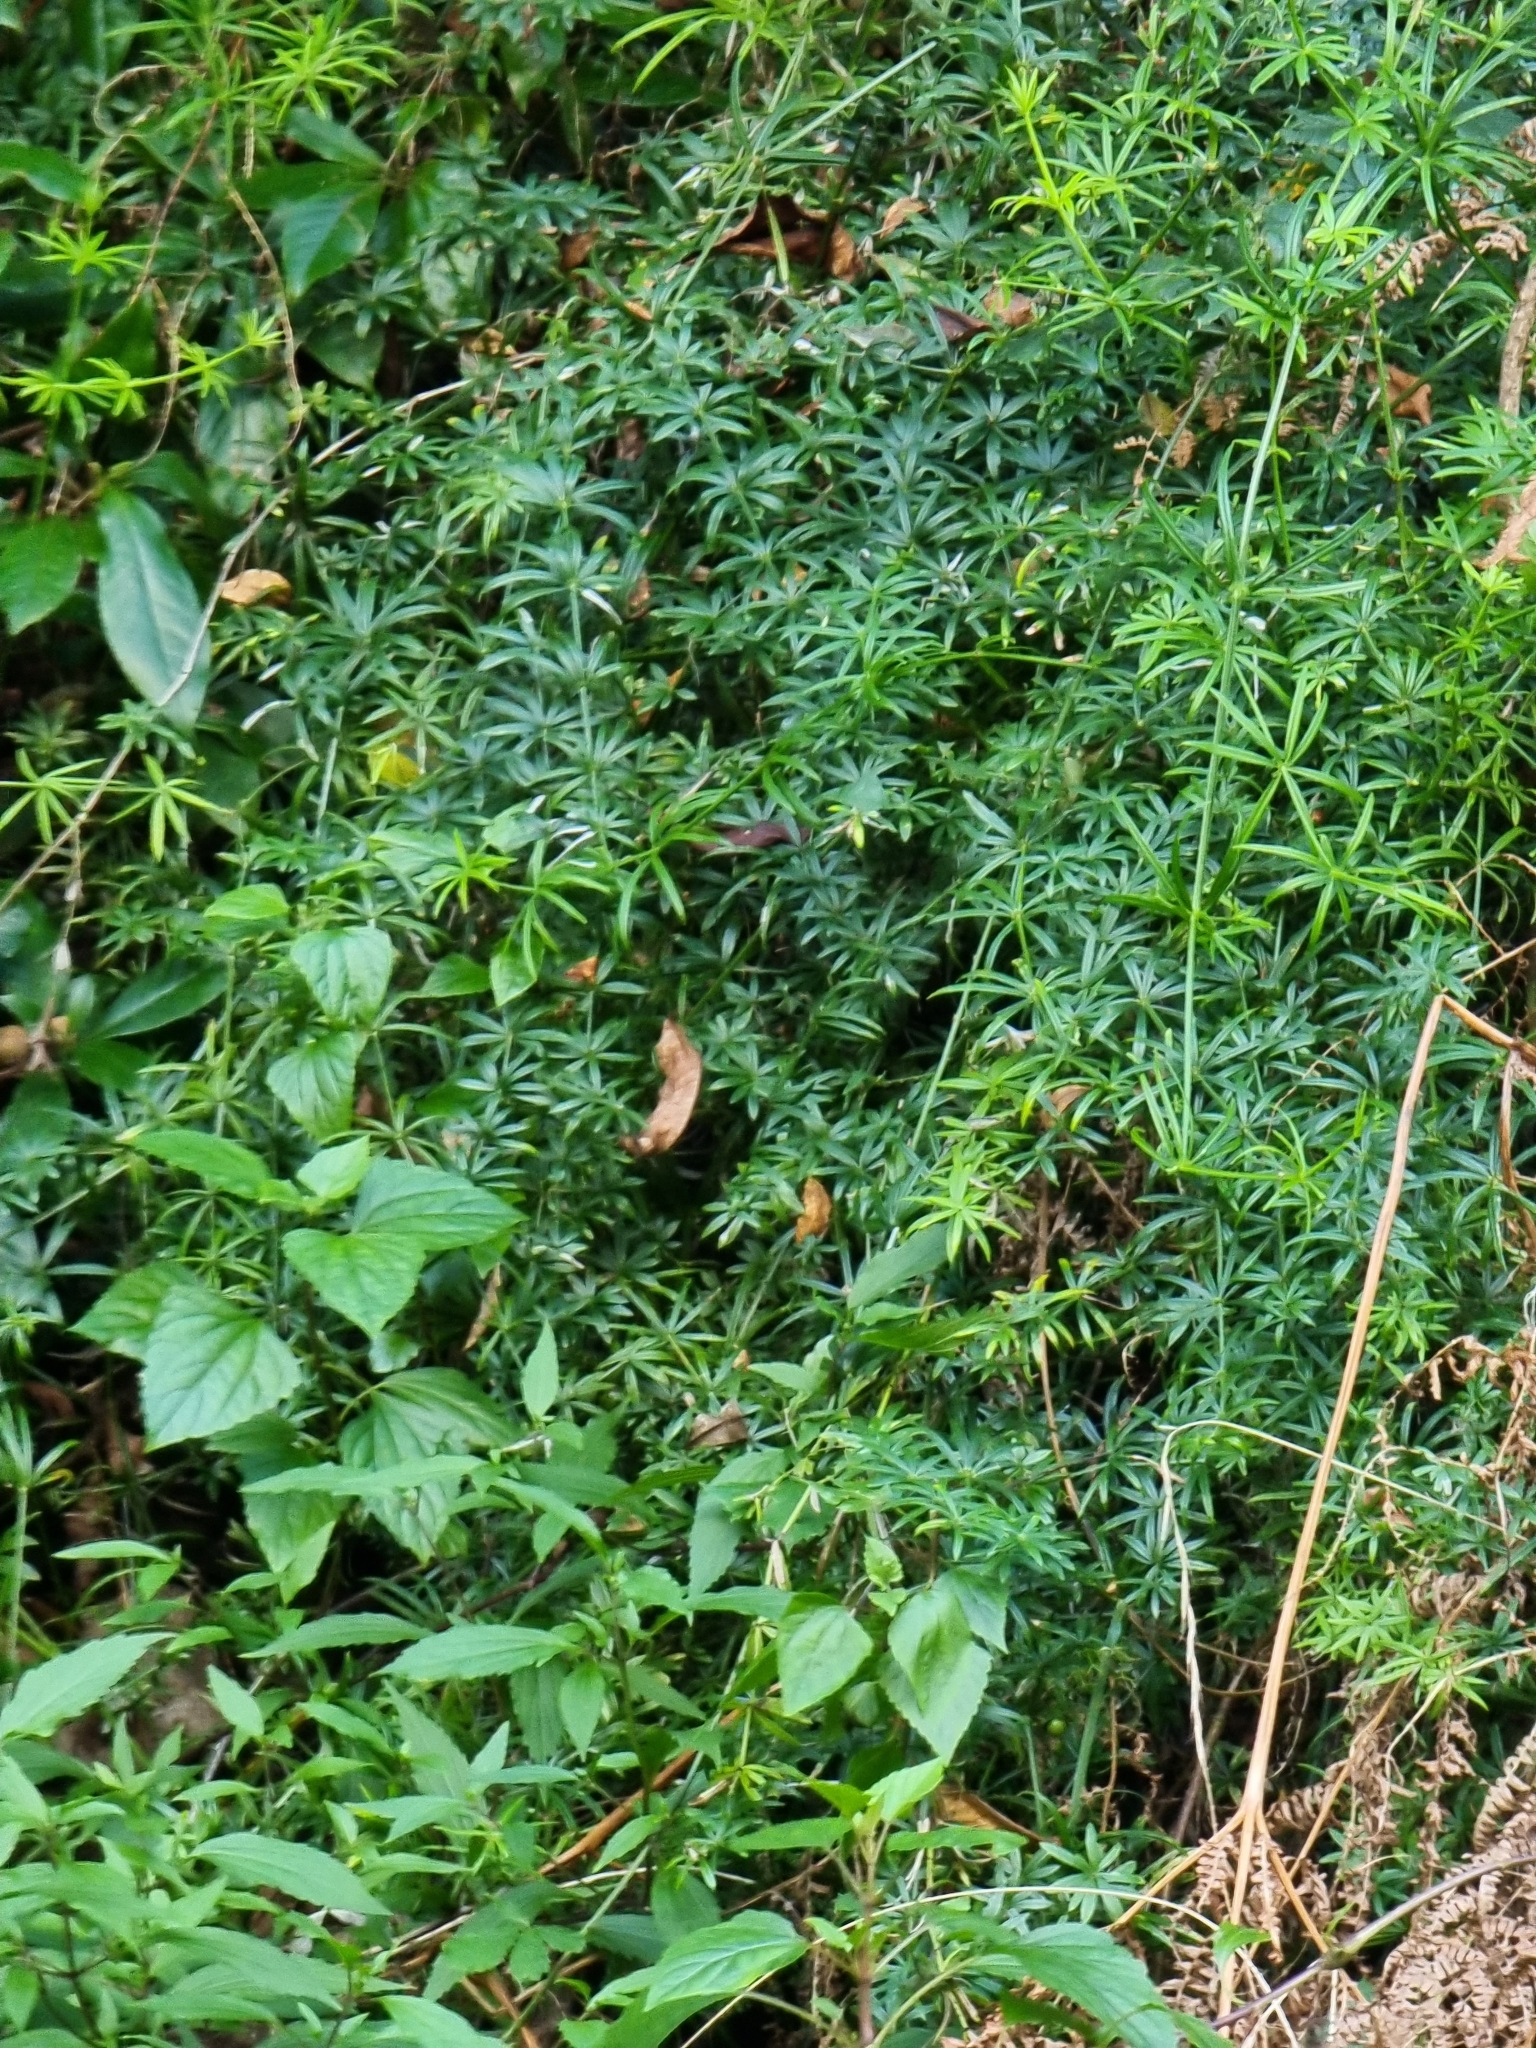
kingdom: Plantae
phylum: Tracheophyta
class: Magnoliopsida
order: Gentianales
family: Rubiaceae
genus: Rubia
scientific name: Rubia occidens
